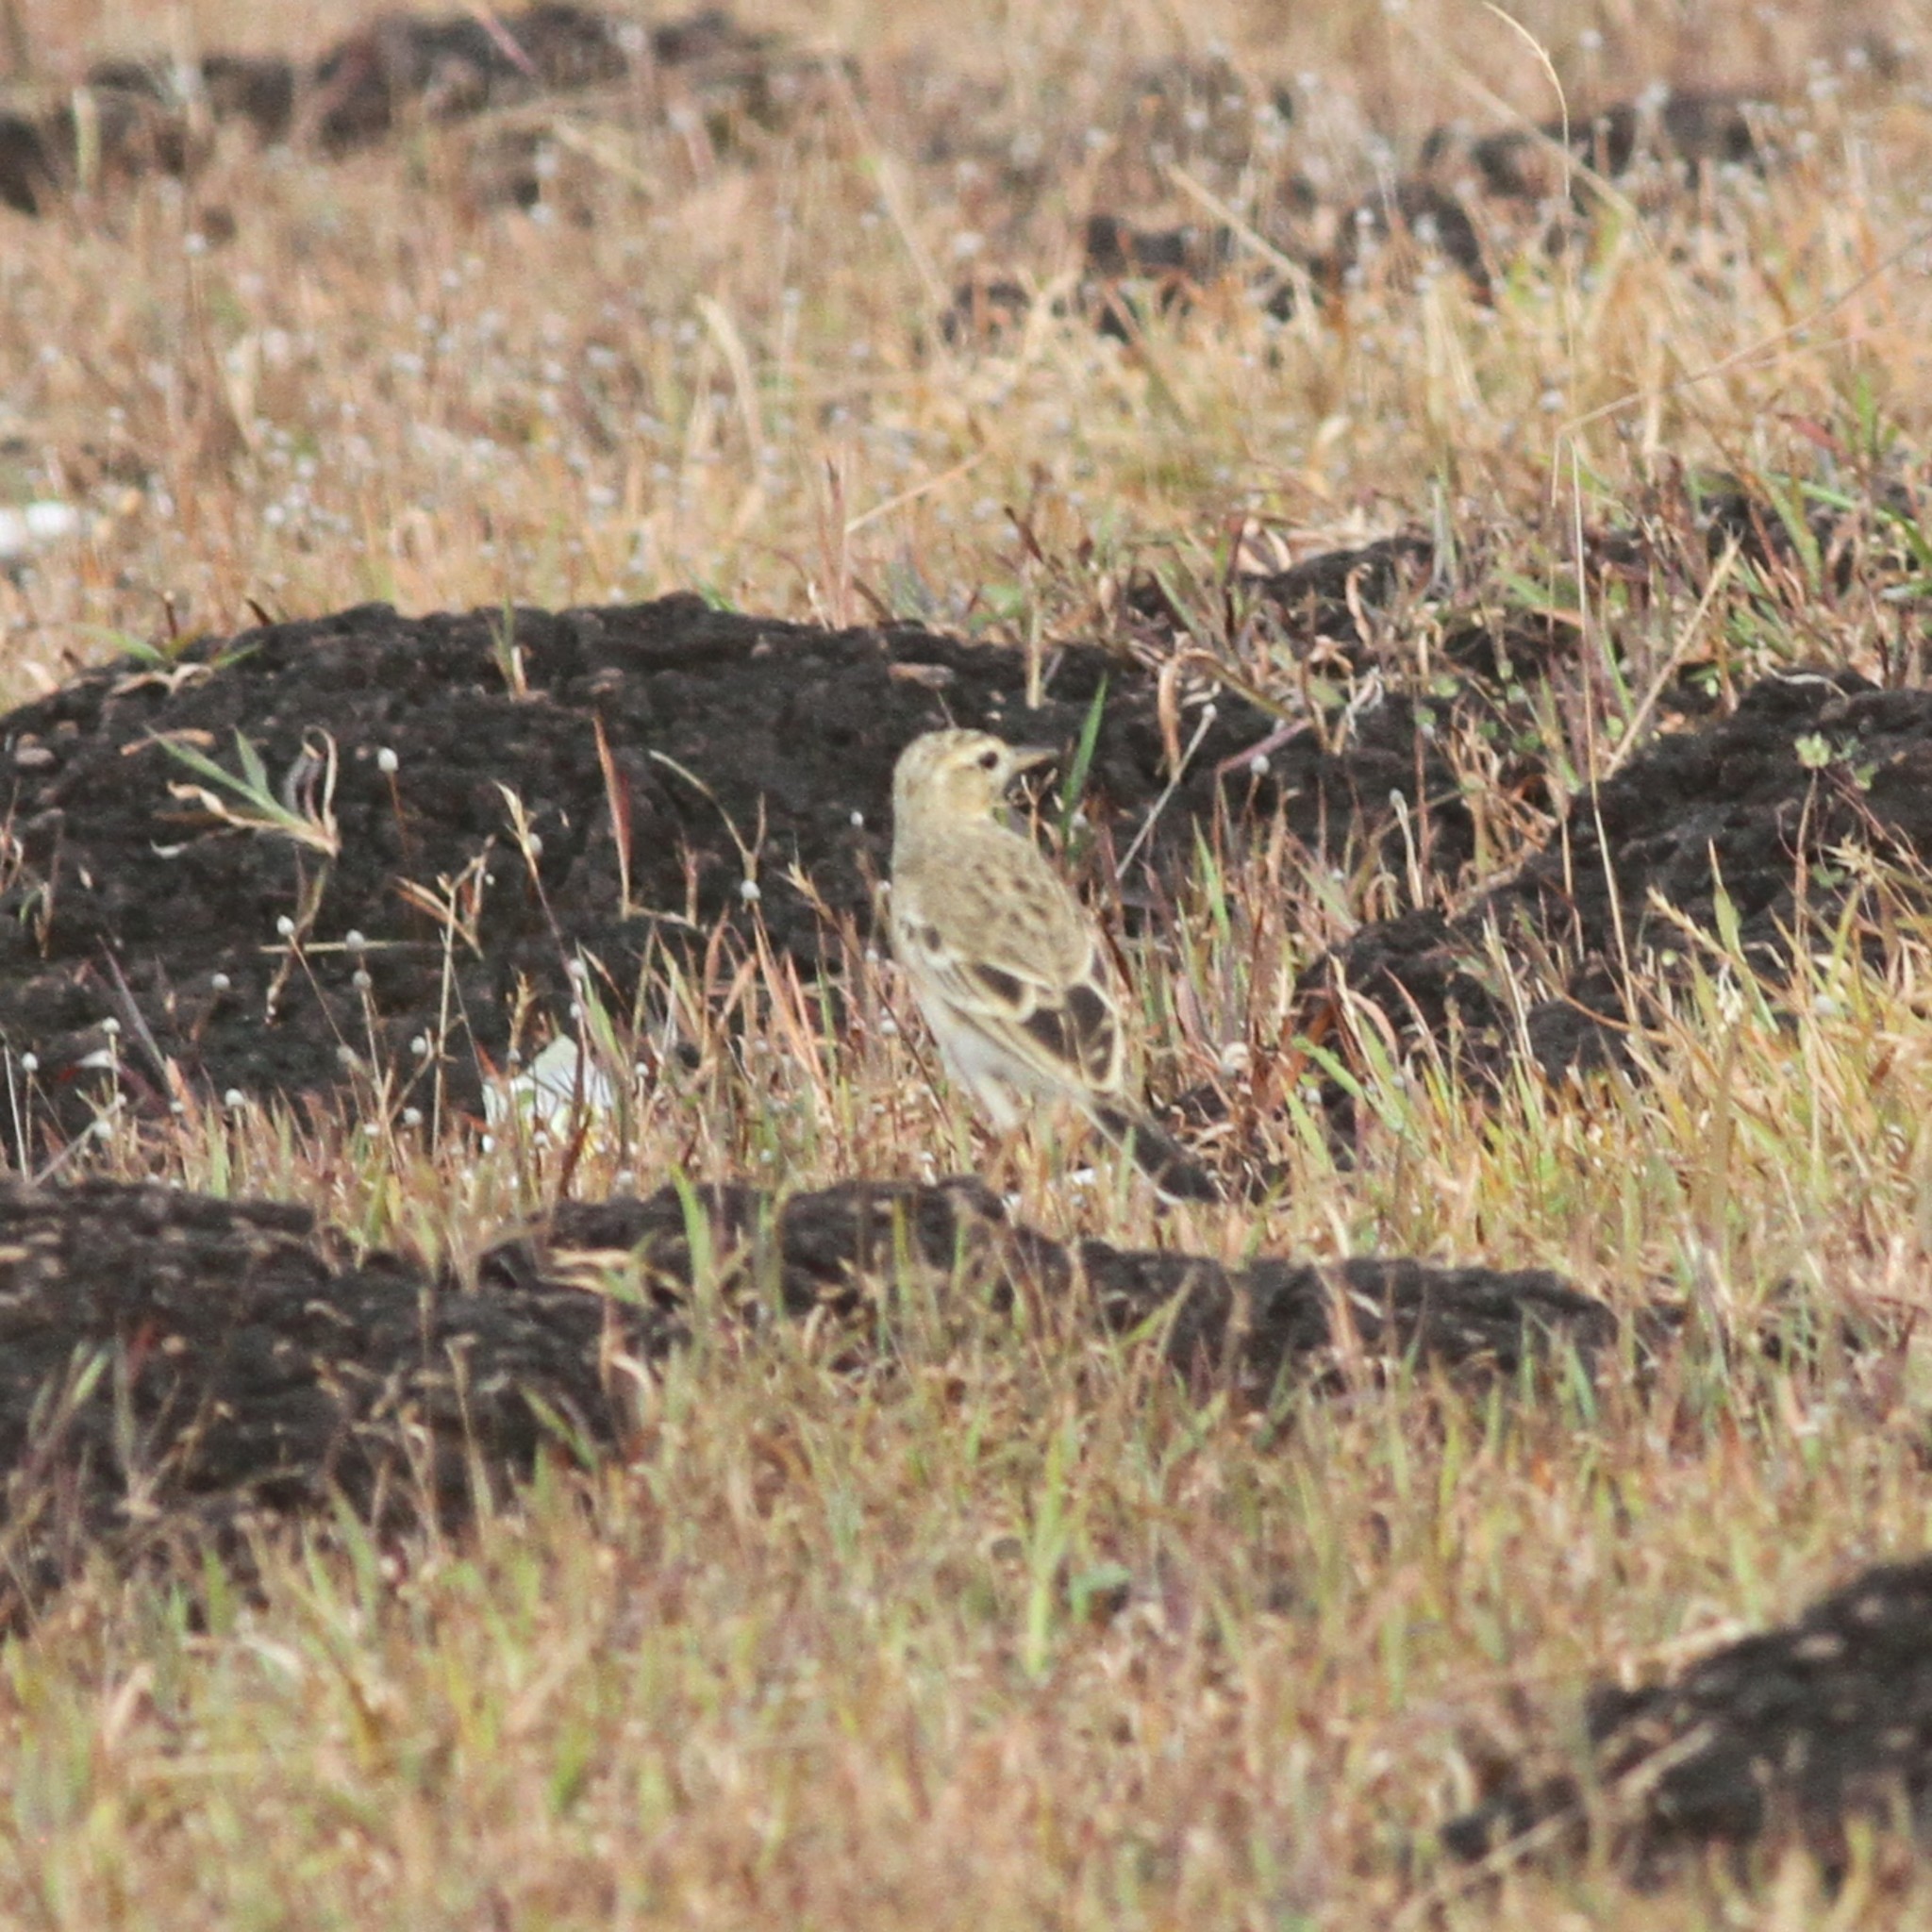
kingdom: Animalia
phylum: Chordata
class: Aves
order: Passeriformes
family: Motacillidae
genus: Anthus
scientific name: Anthus rufulus
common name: Paddyfield pipit
